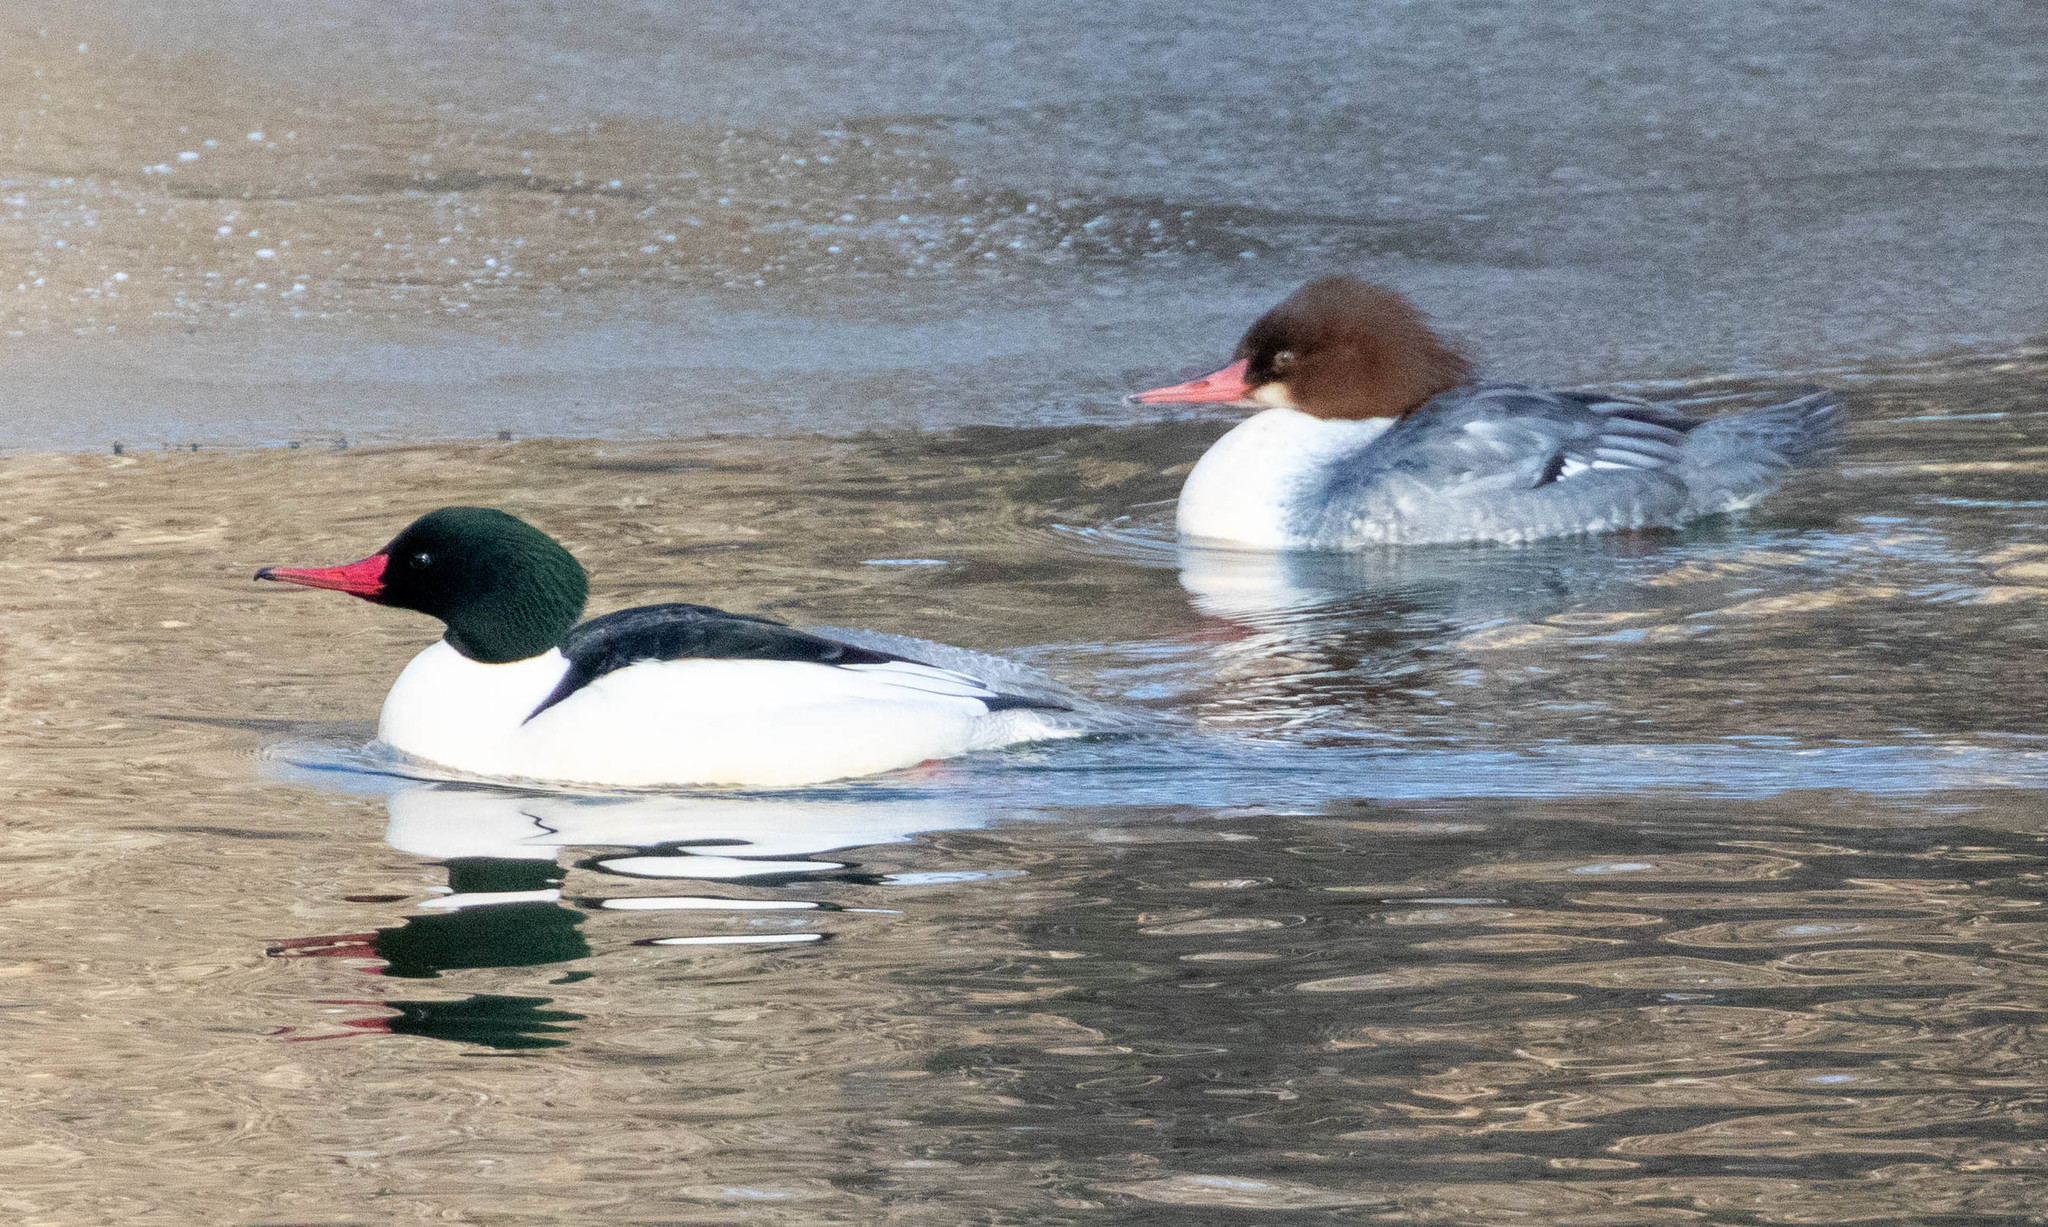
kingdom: Animalia
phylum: Chordata
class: Aves
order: Anseriformes
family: Anatidae
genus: Mergus
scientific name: Mergus merganser
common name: Common merganser
